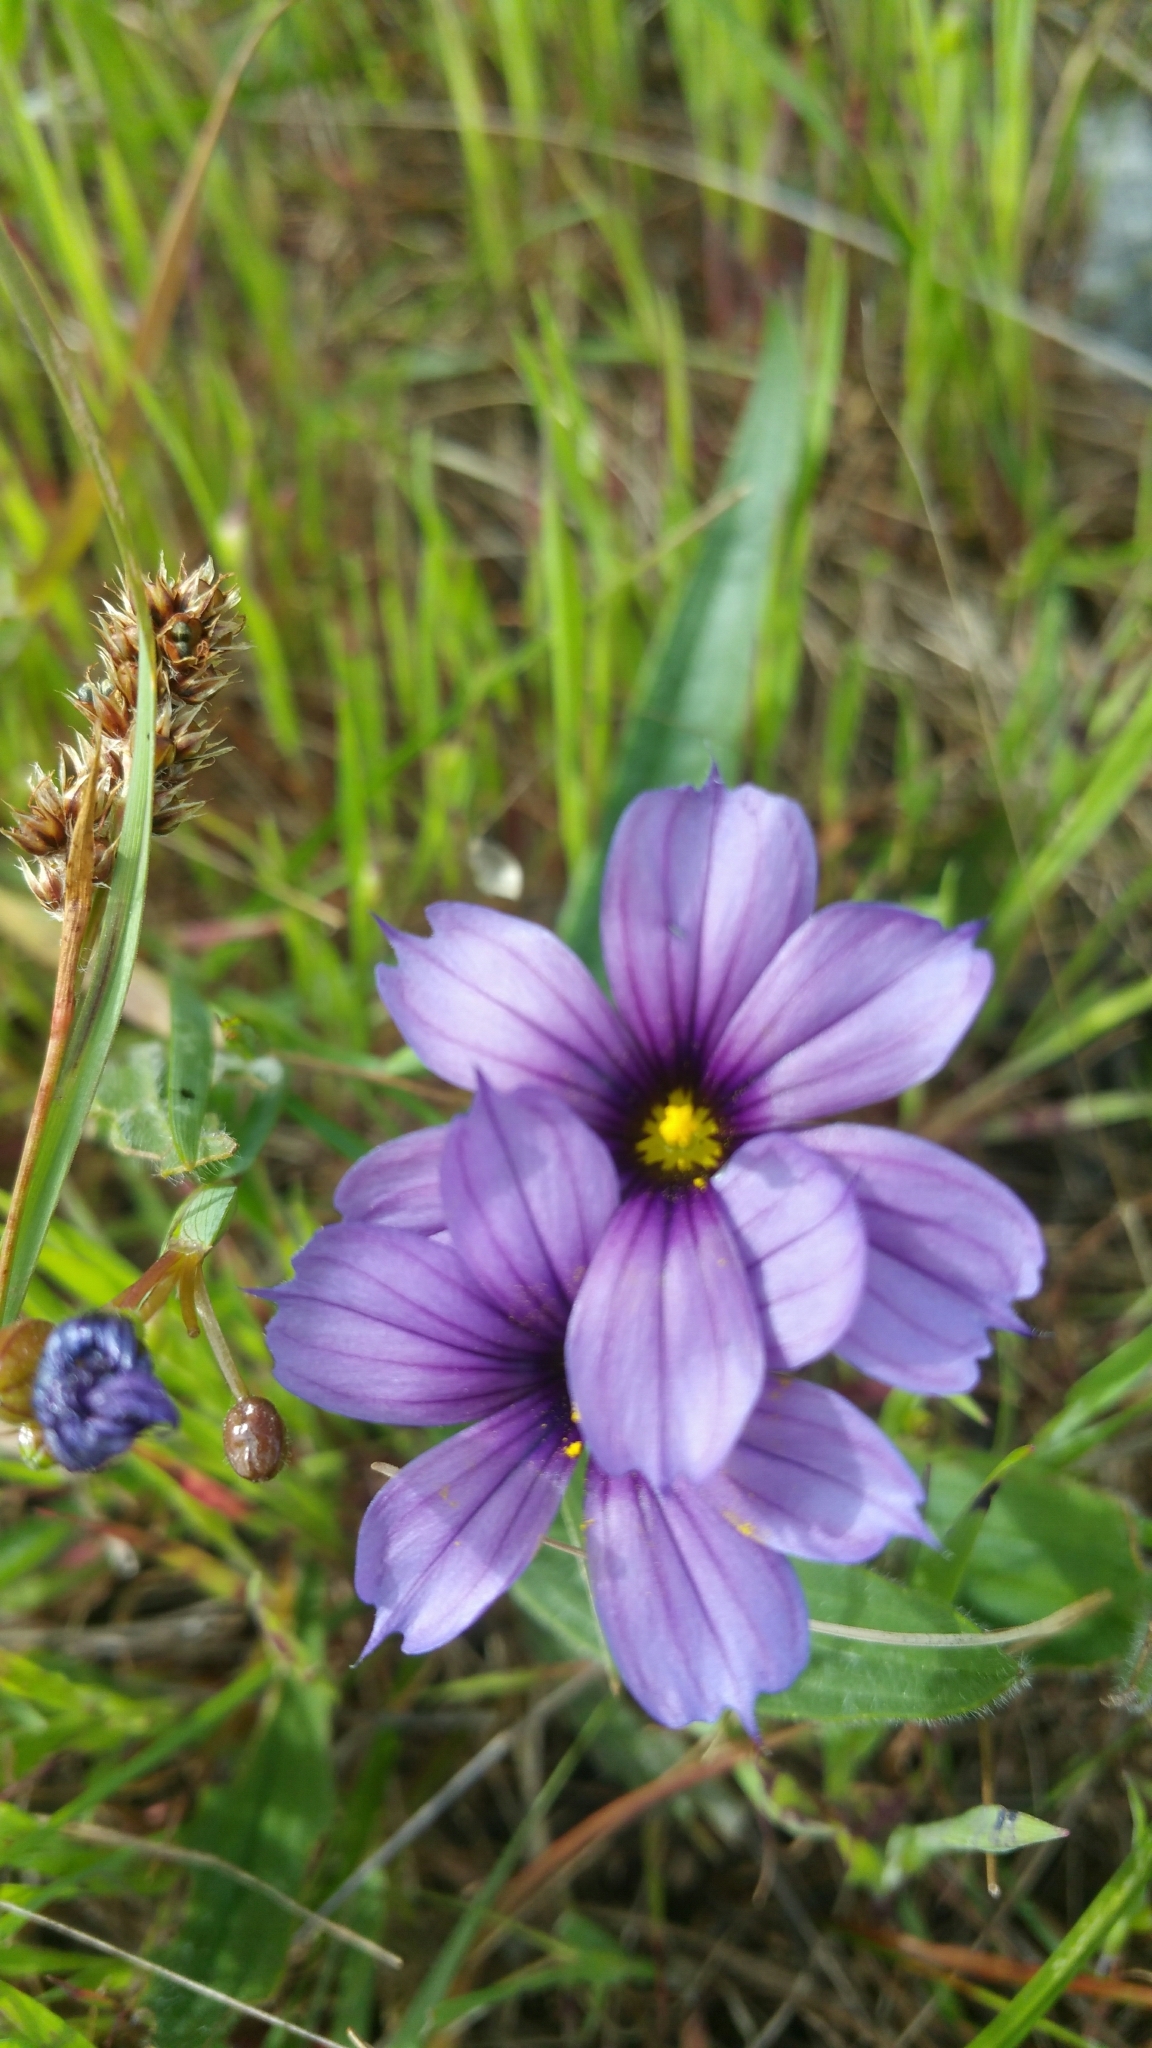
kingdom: Plantae
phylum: Tracheophyta
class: Liliopsida
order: Asparagales
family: Iridaceae
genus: Sisyrinchium
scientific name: Sisyrinchium bellum
